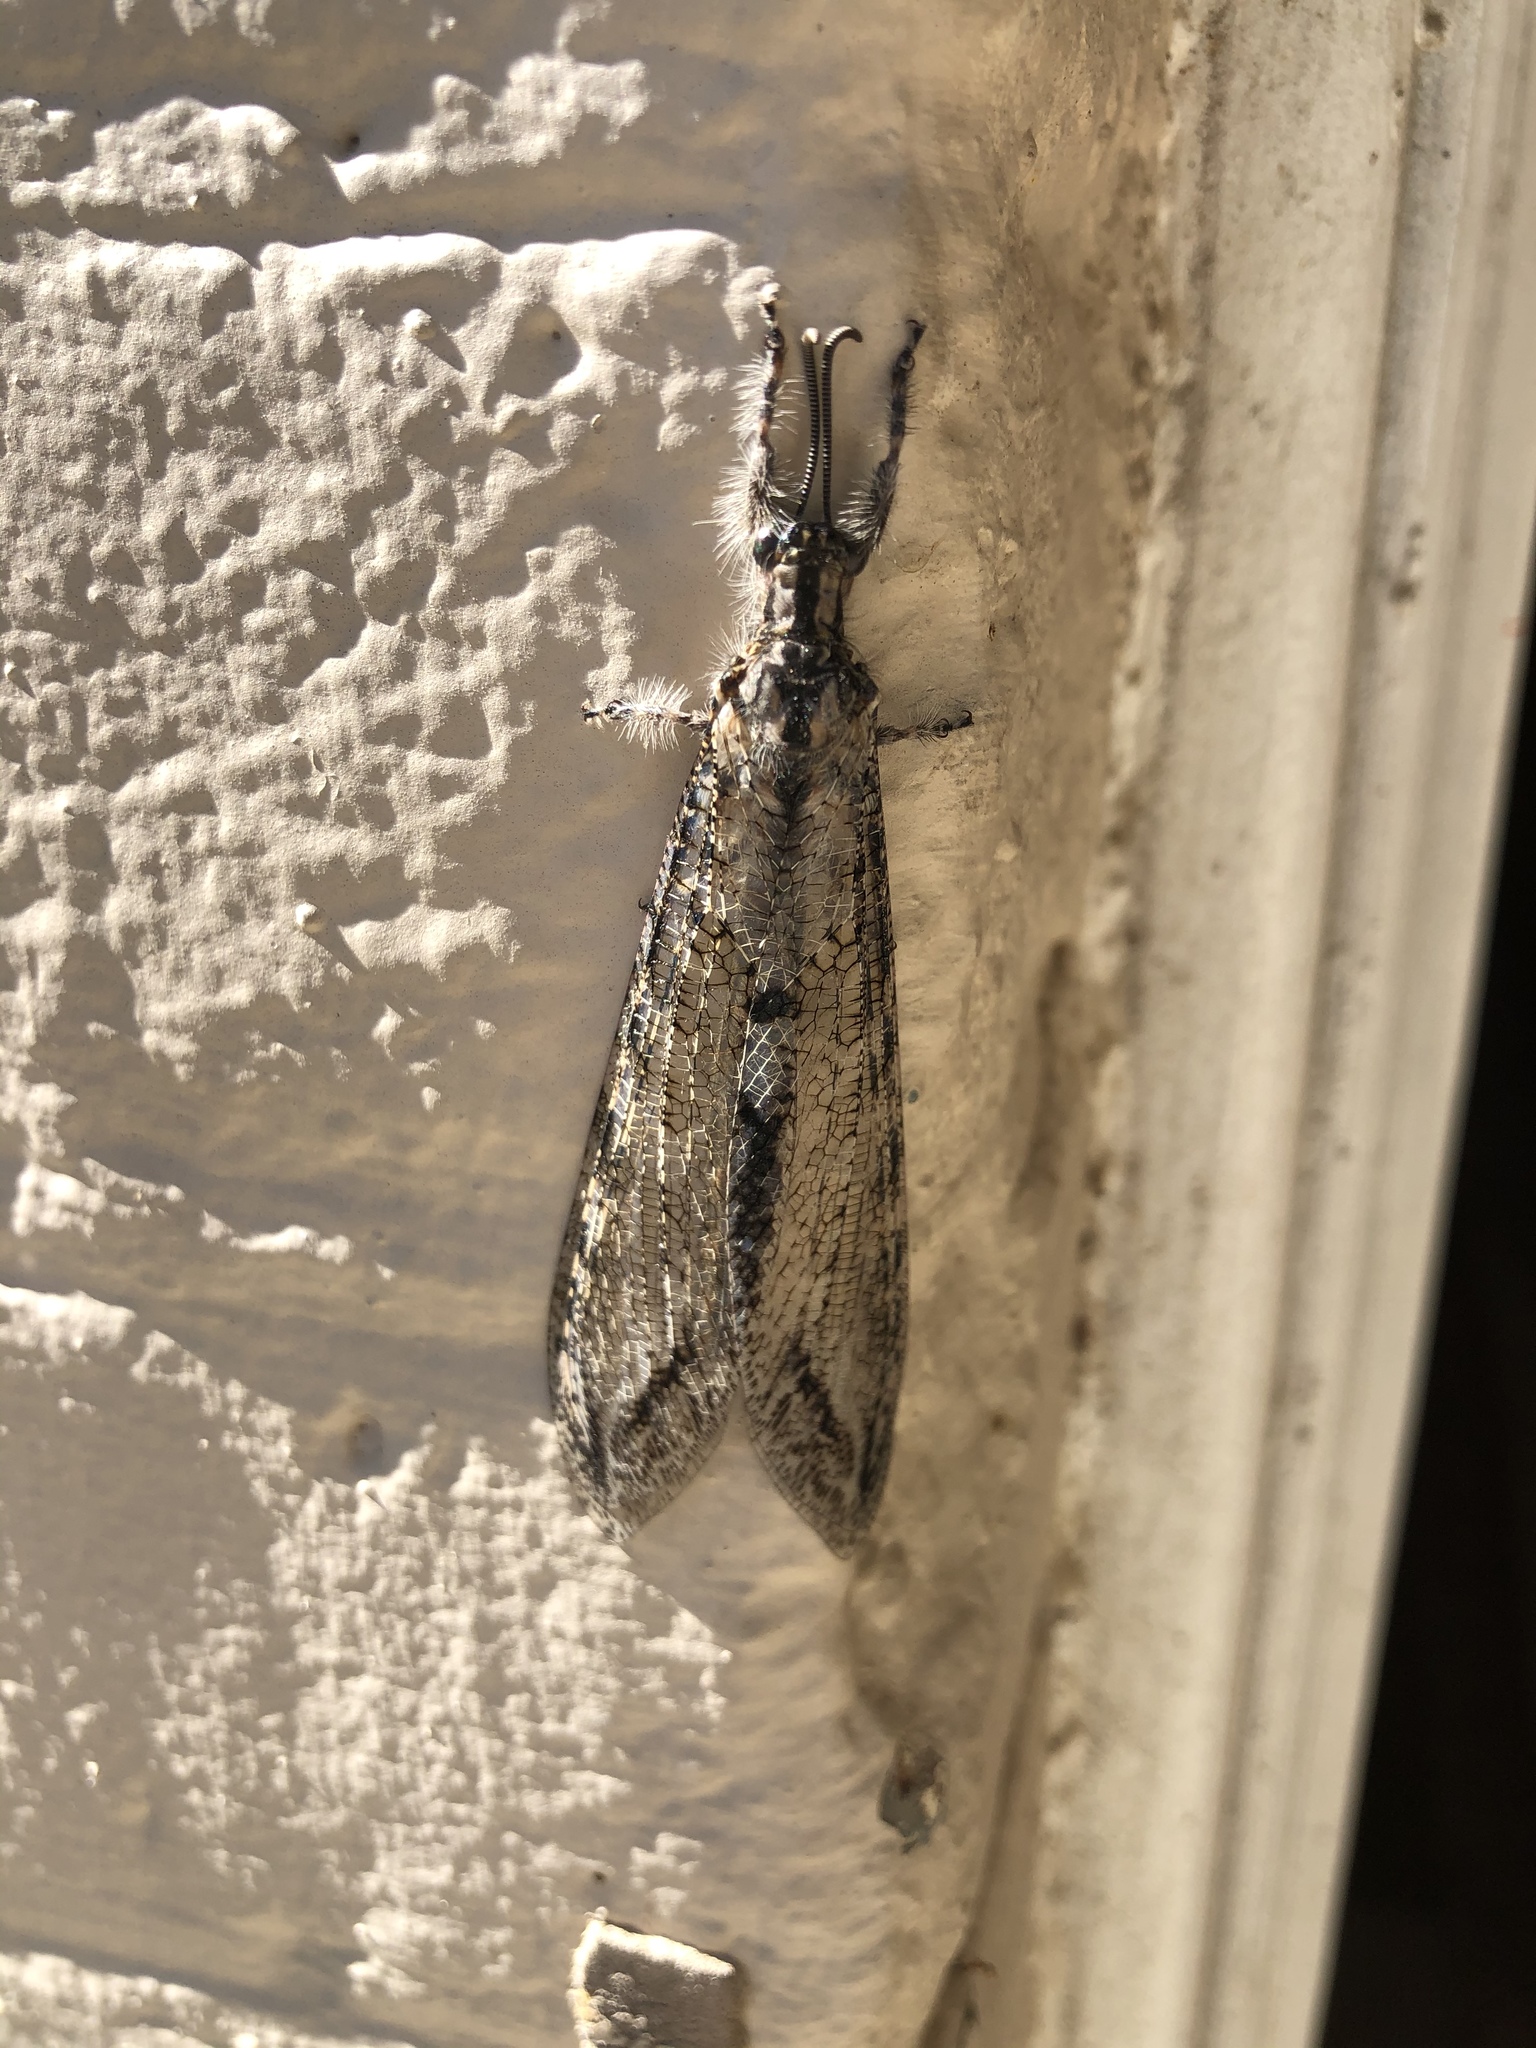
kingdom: Animalia
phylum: Arthropoda
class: Insecta
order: Neuroptera
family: Myrmeleontidae
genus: Vella
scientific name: Vella fallax
